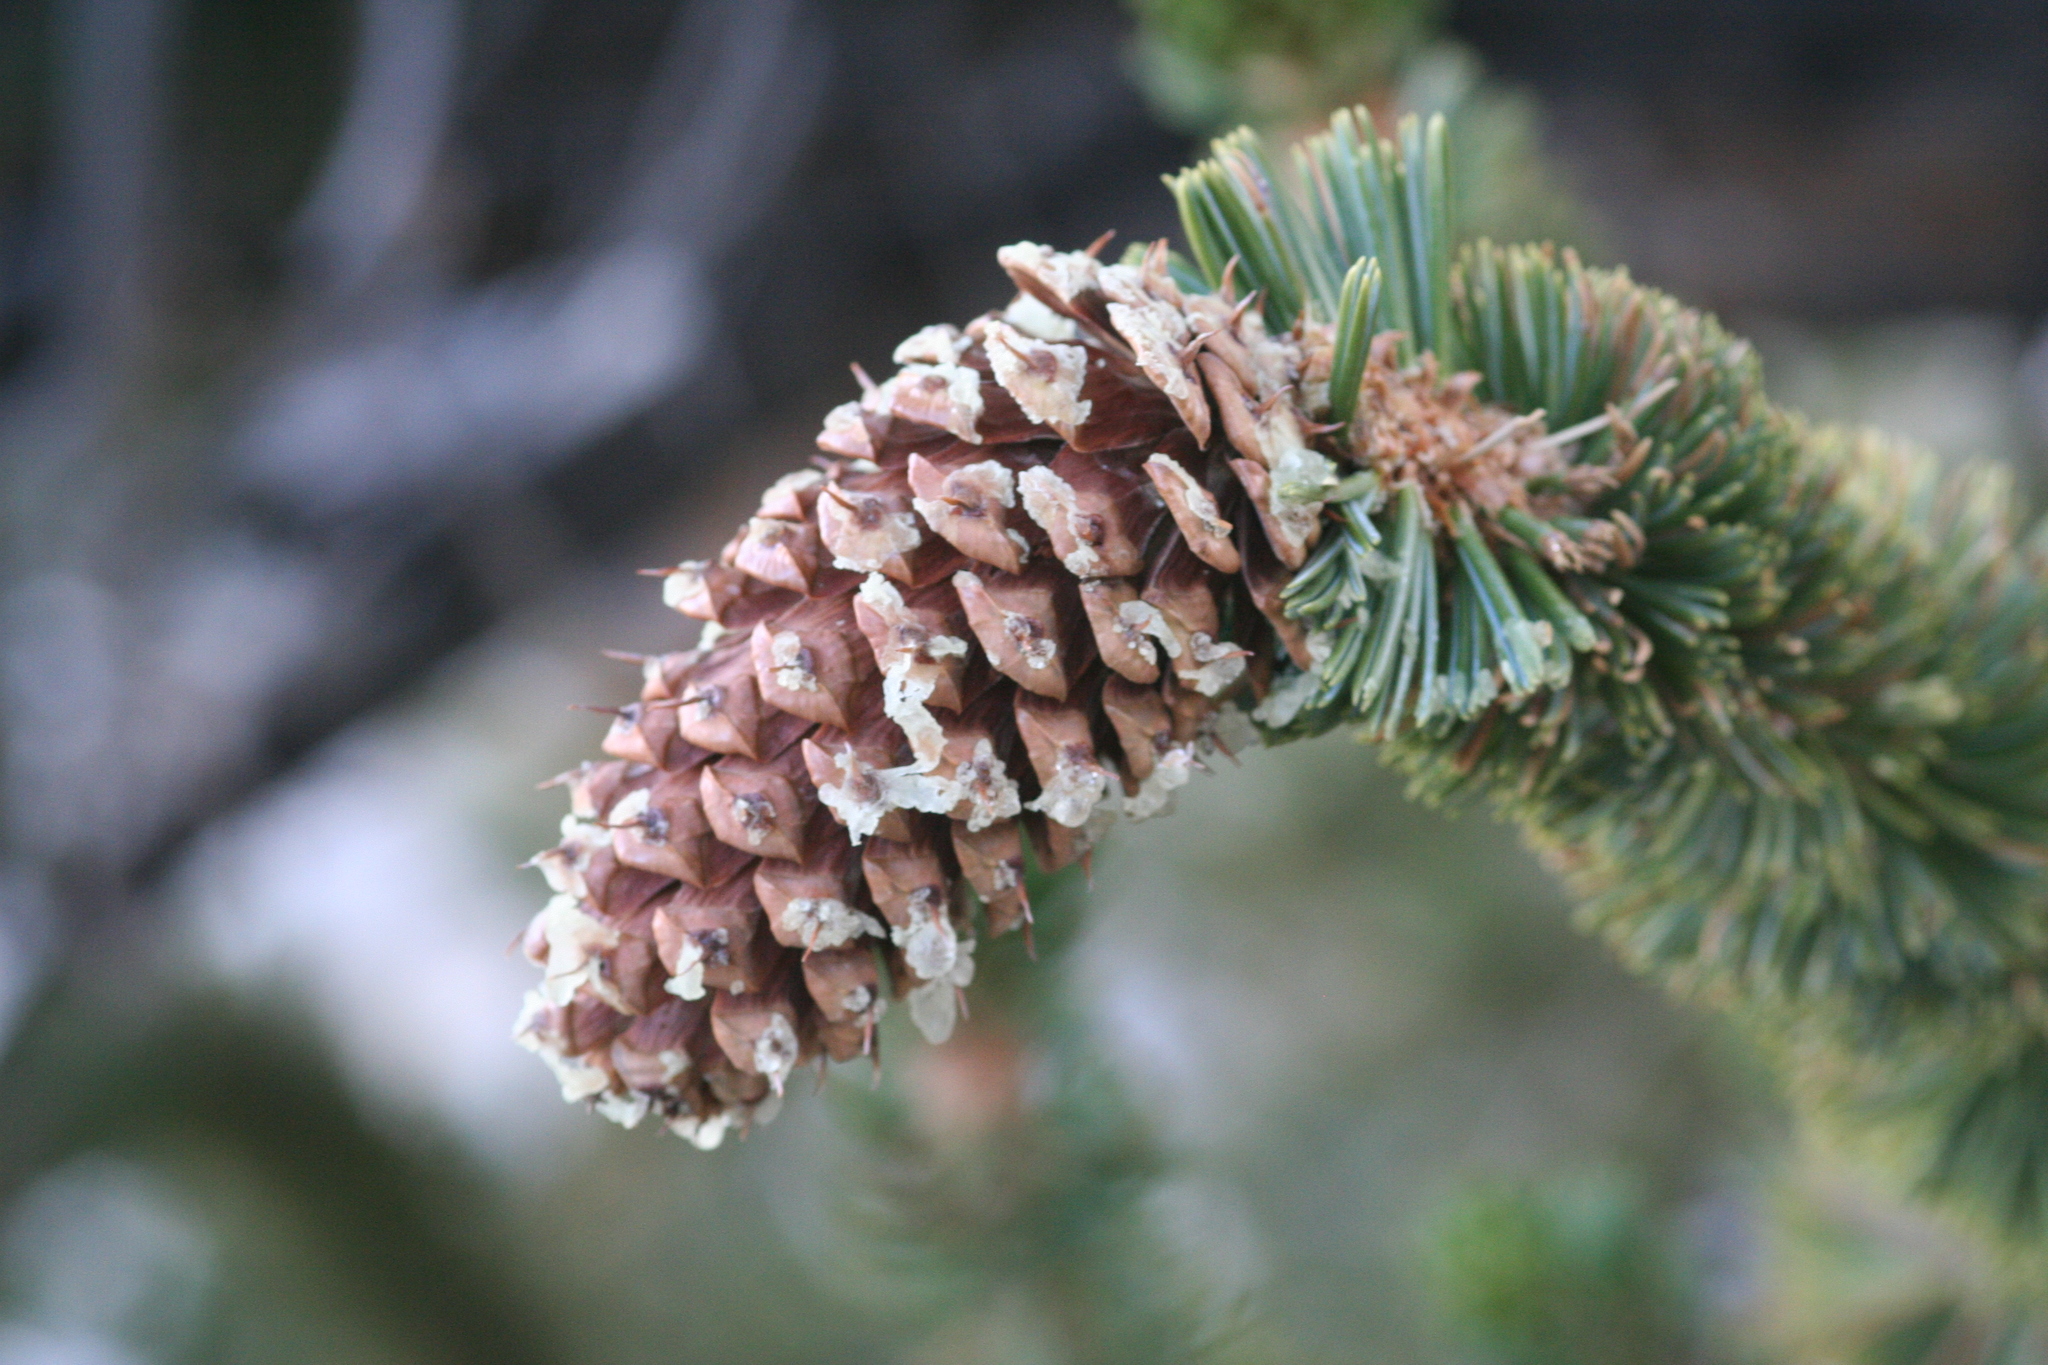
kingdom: Plantae
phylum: Tracheophyta
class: Pinopsida
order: Pinales
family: Pinaceae
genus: Pinus
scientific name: Pinus longaeva
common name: Intermountain bristlecone pine
